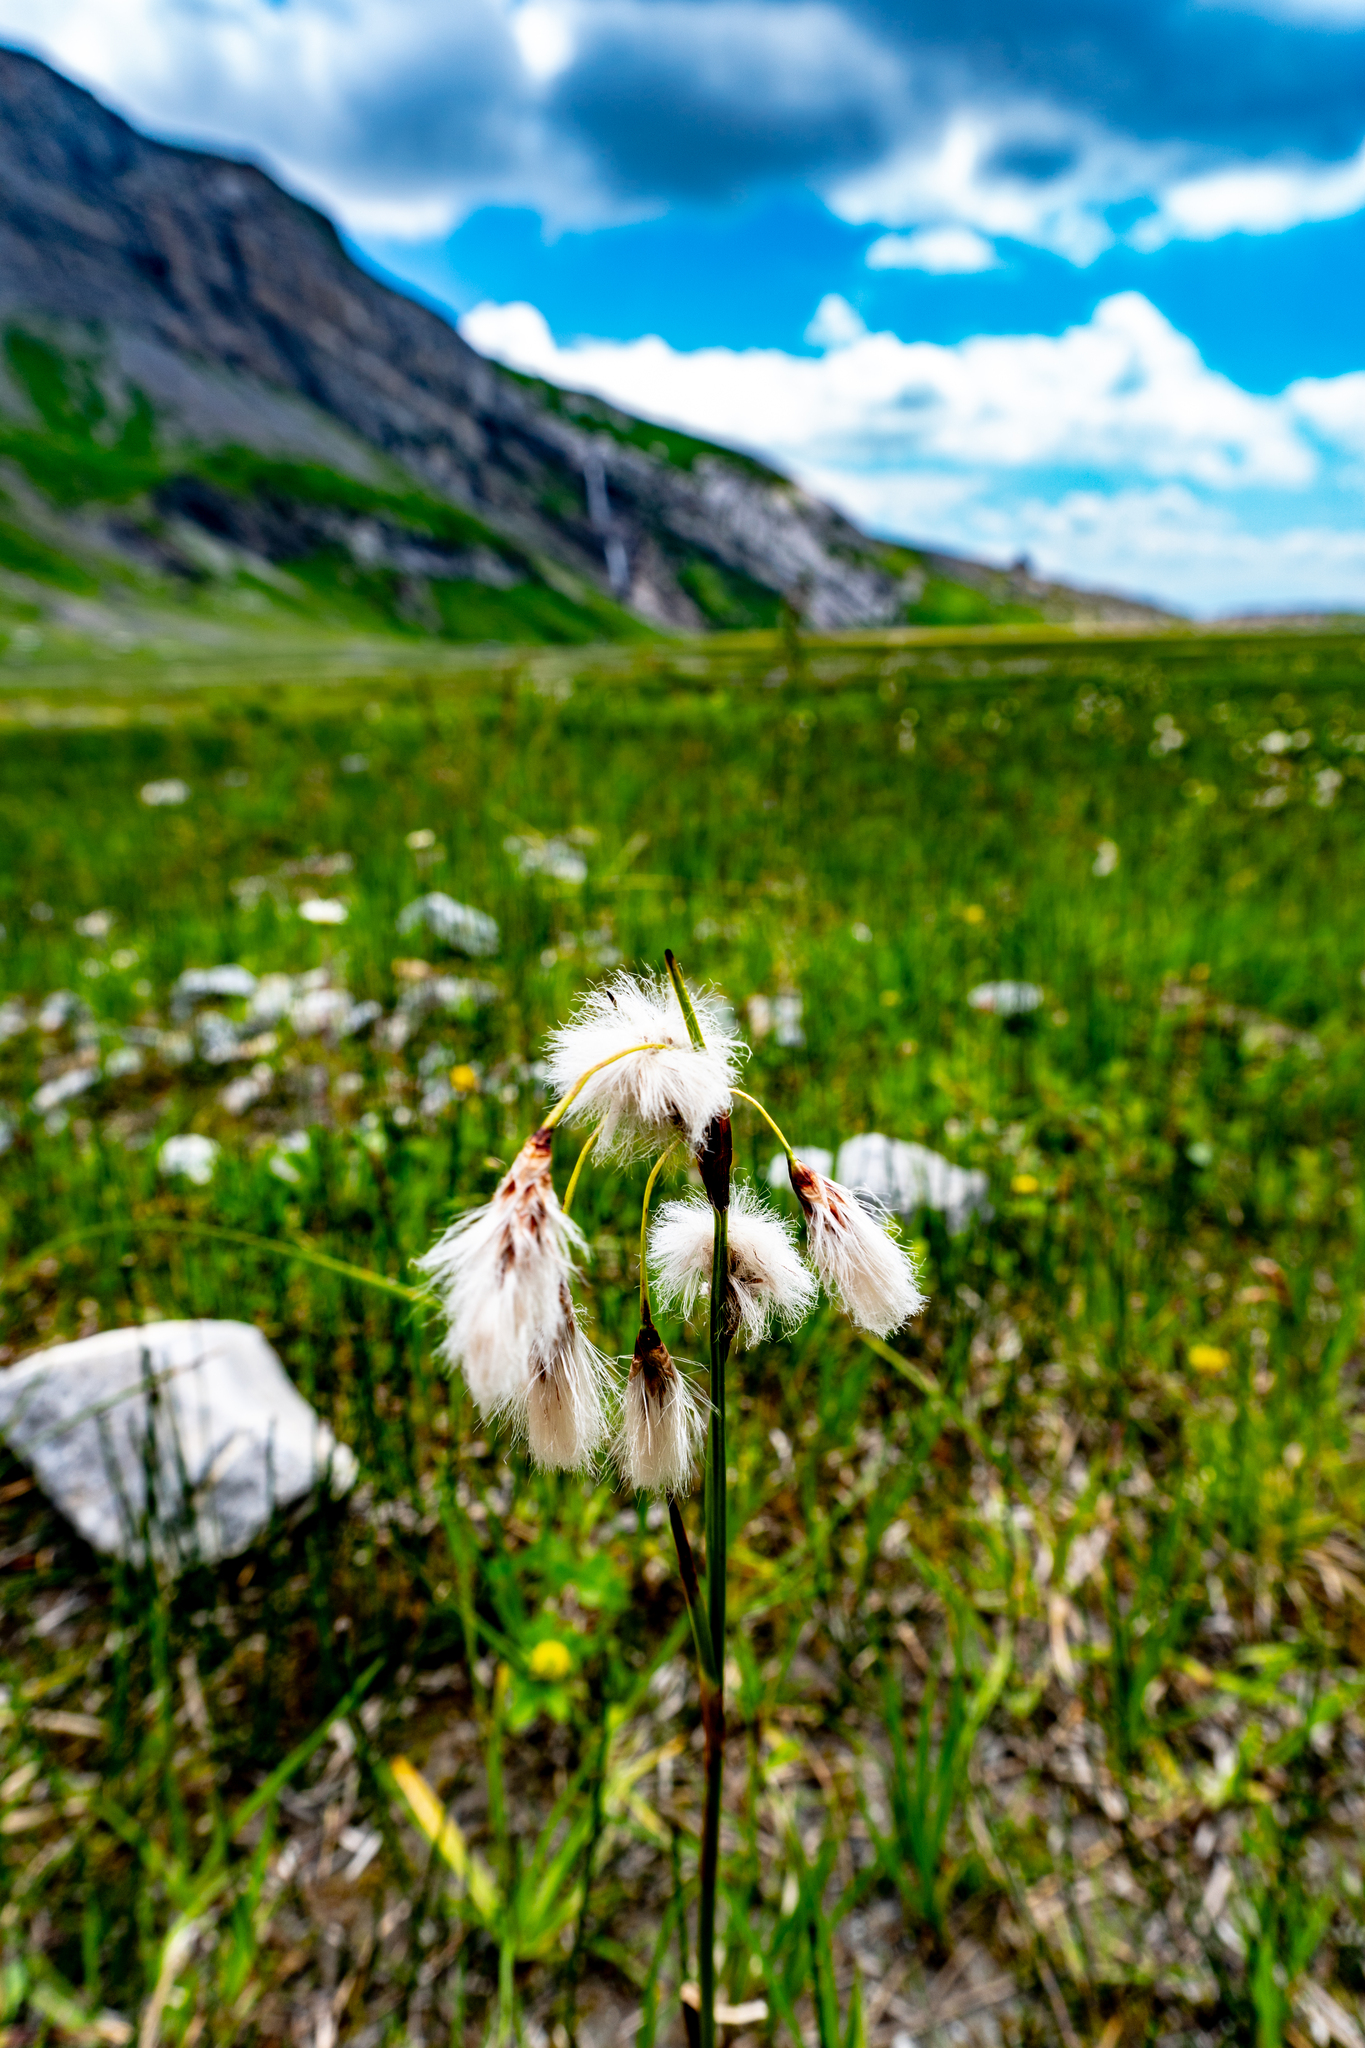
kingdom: Plantae
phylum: Tracheophyta
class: Liliopsida
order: Poales
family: Cyperaceae
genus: Eriophorum
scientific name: Eriophorum scheuchzeri
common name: Scheuchzer's cottongrass
